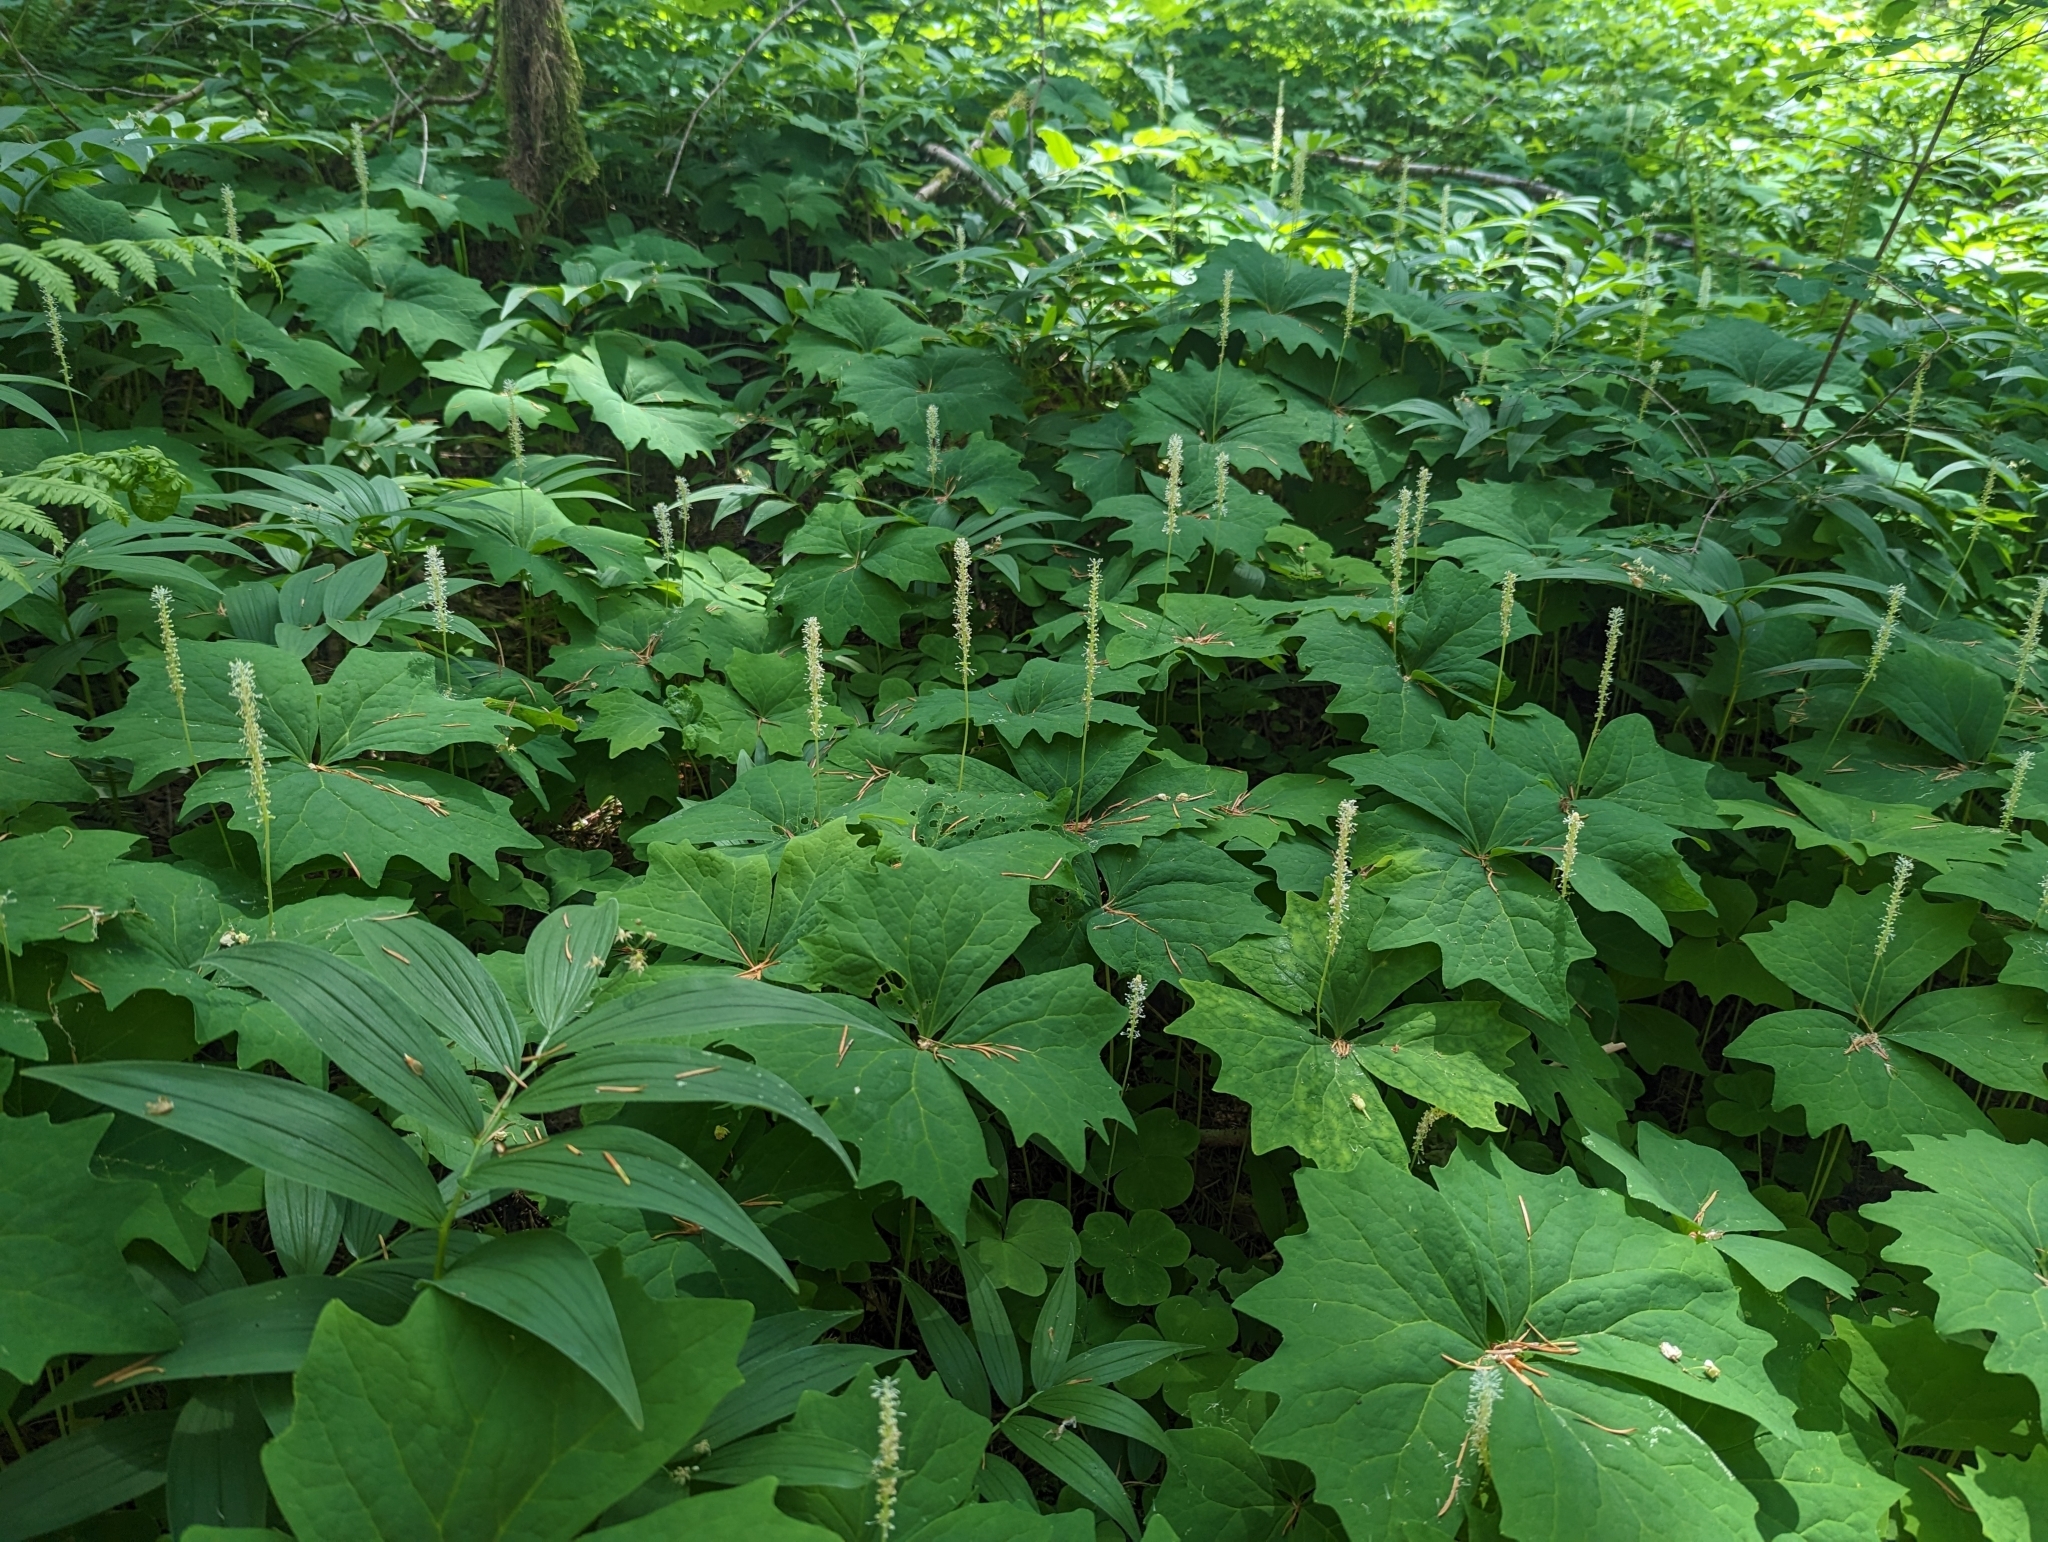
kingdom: Plantae
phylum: Tracheophyta
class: Magnoliopsida
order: Ranunculales
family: Berberidaceae
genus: Achlys
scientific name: Achlys triphylla
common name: Vanilla-leaf
